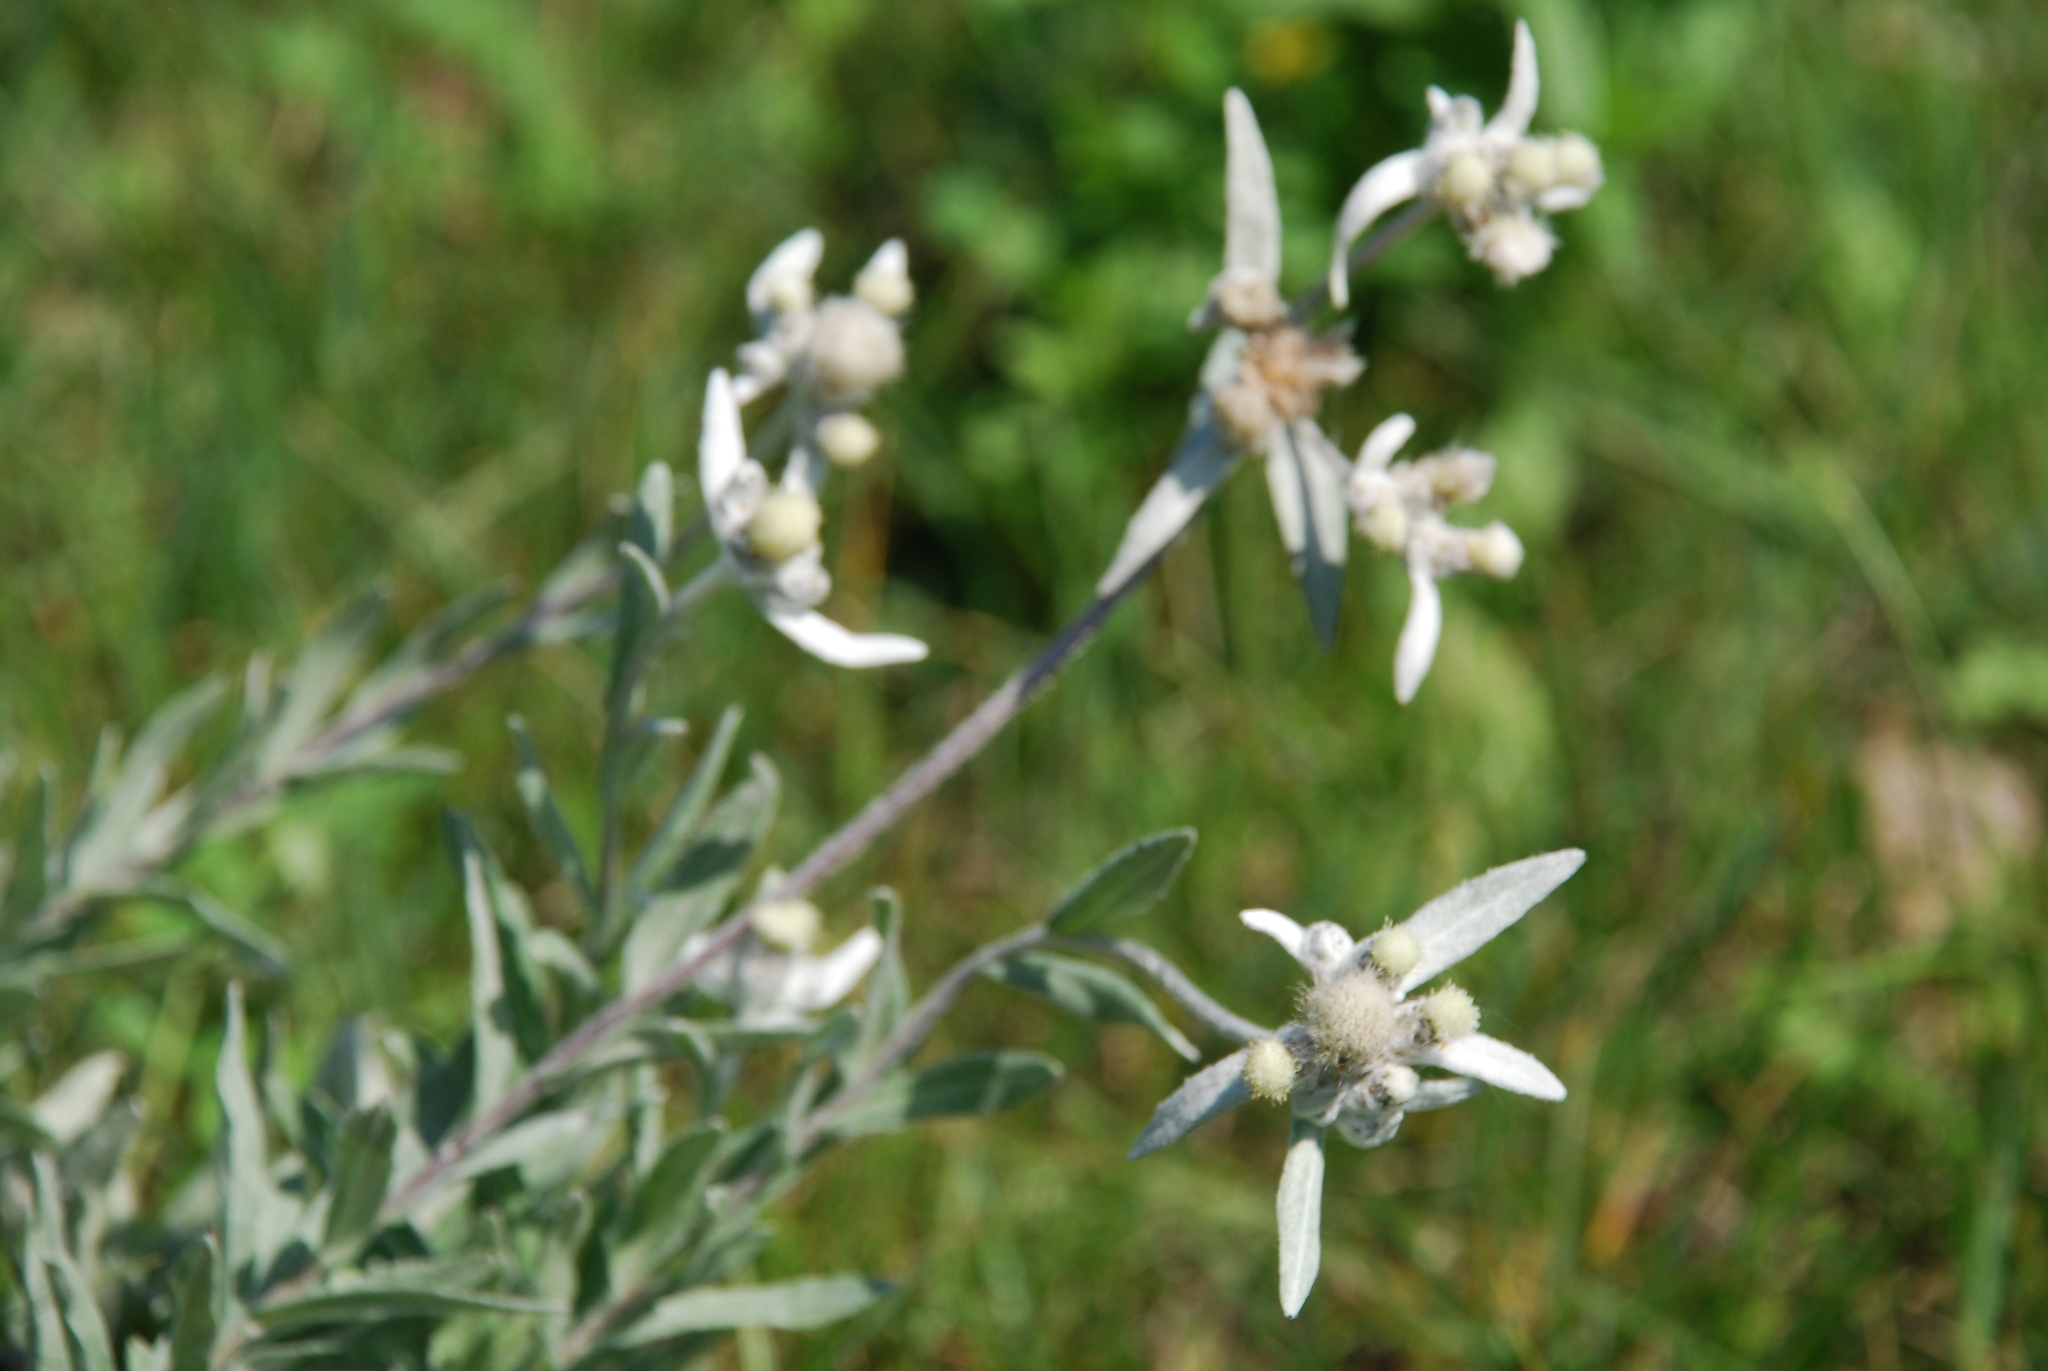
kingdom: Plantae
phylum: Tracheophyta
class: Magnoliopsida
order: Asterales
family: Asteraceae
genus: Leontopodium
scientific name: Leontopodium leontopodioides
